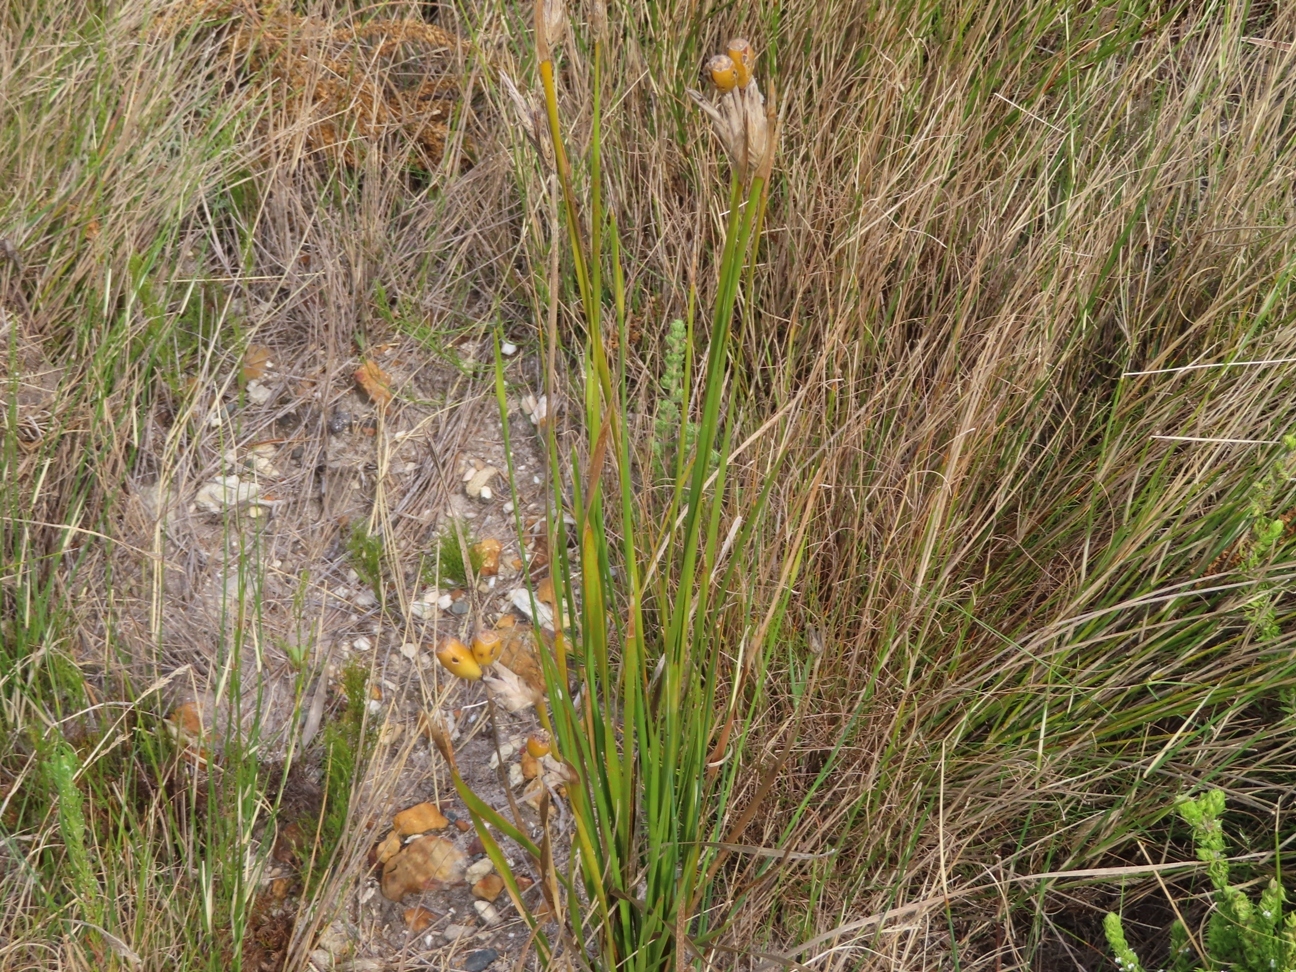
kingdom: Plantae
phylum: Tracheophyta
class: Liliopsida
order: Asparagales
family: Iridaceae
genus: Bobartia
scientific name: Bobartia filiformis
